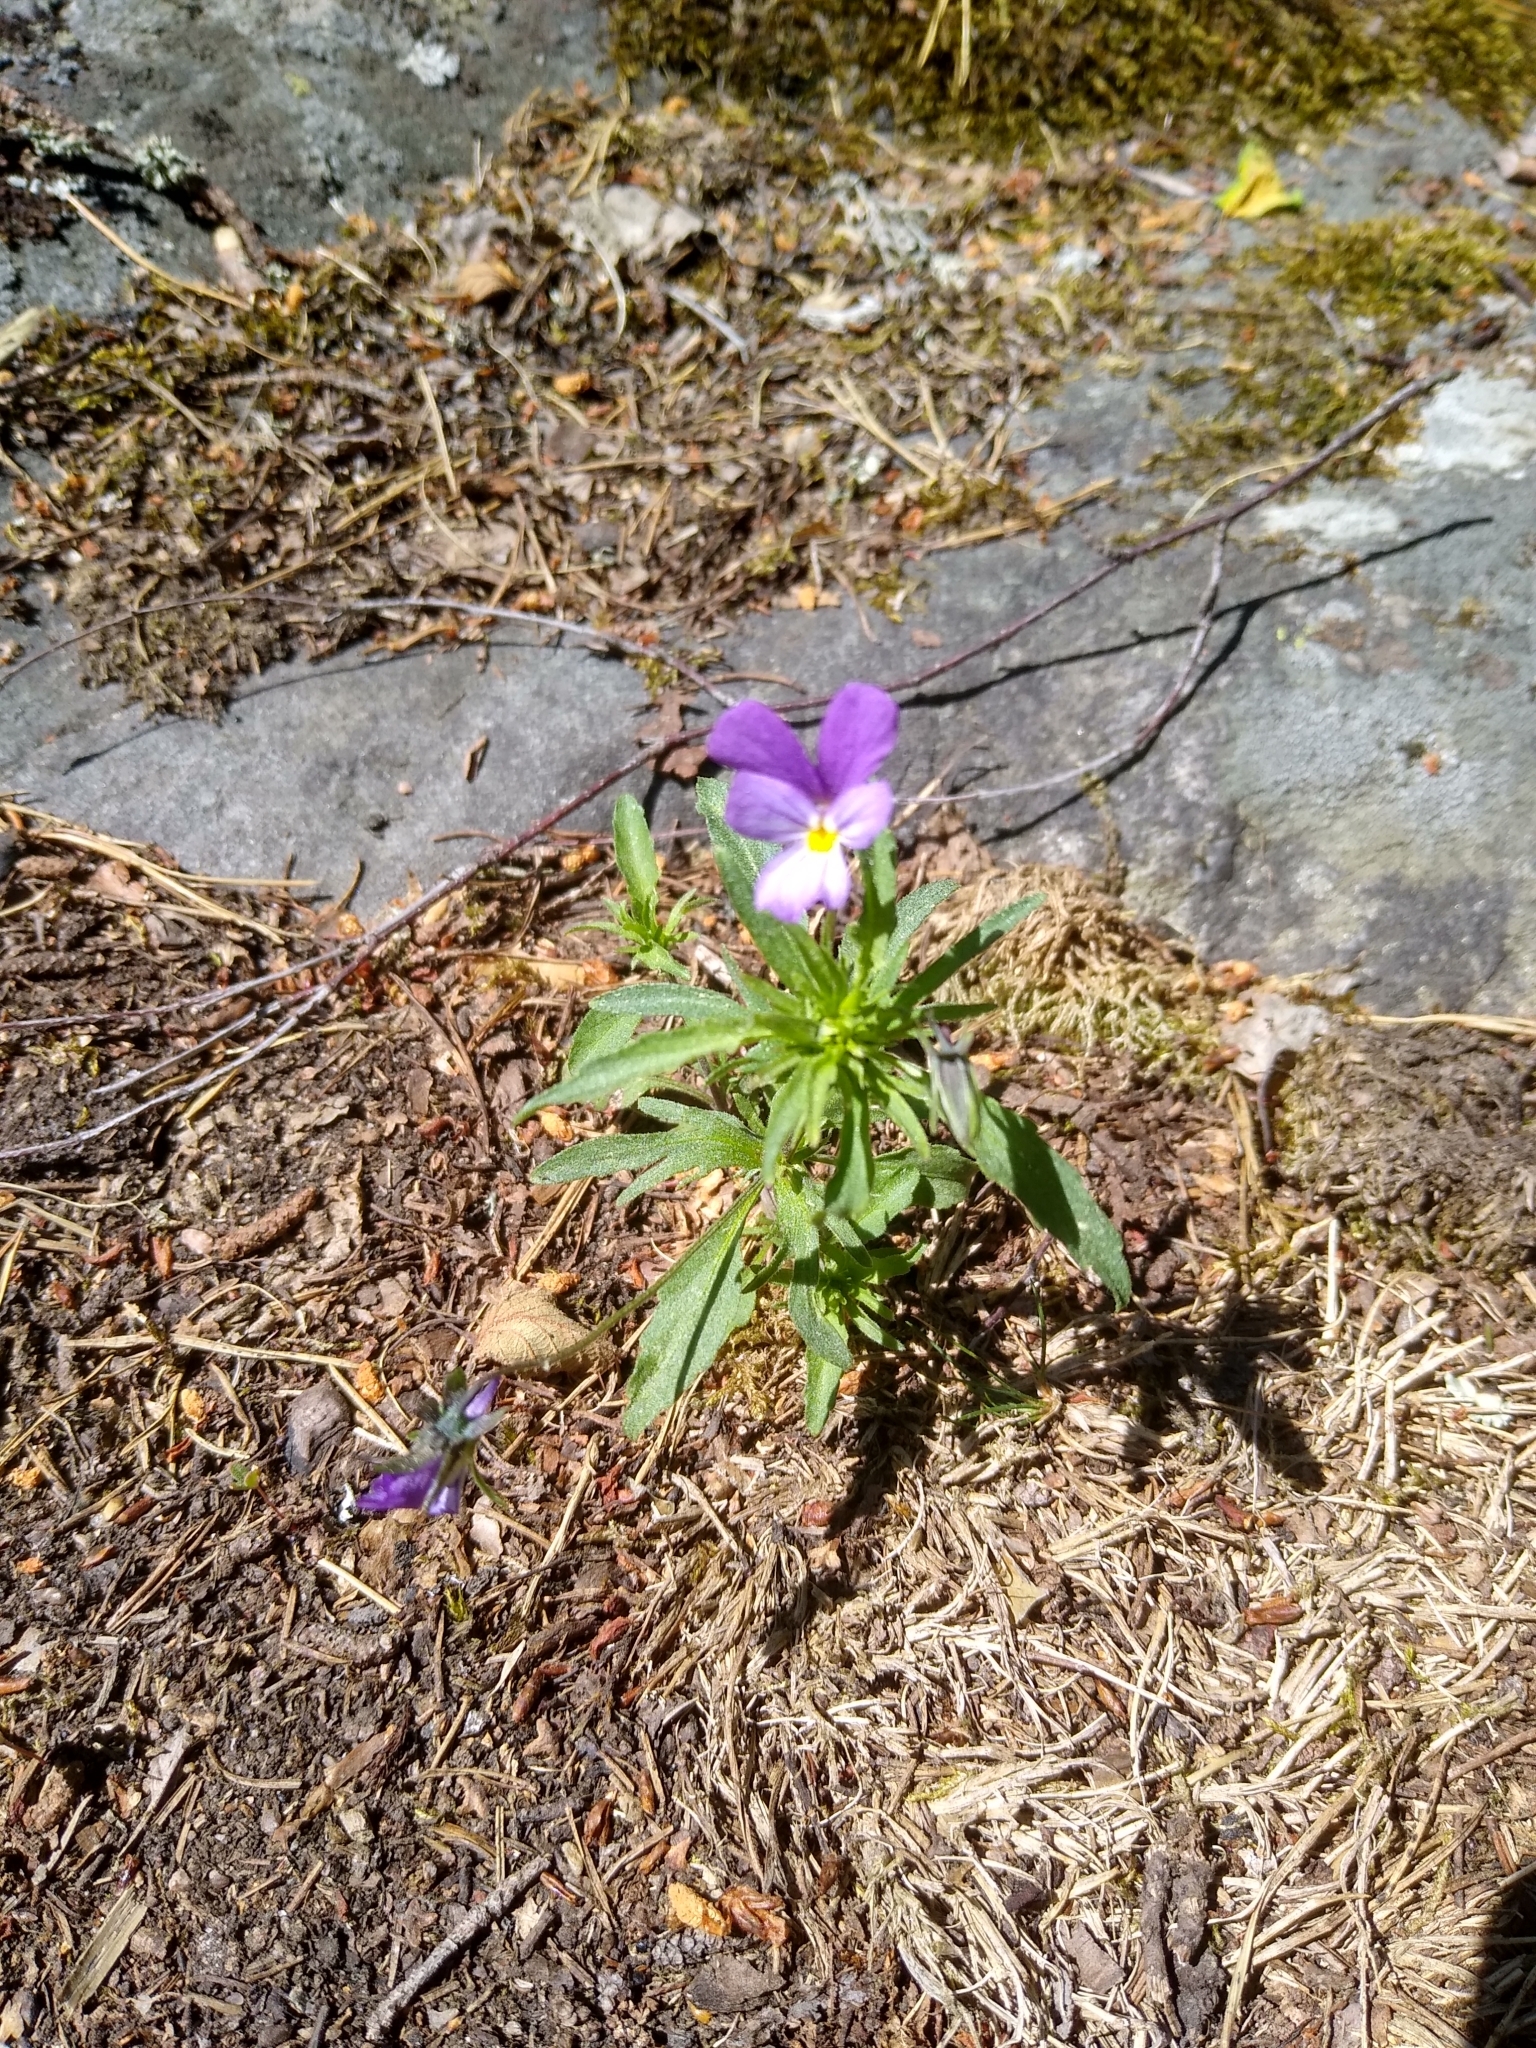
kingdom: Plantae
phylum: Tracheophyta
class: Magnoliopsida
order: Malpighiales
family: Violaceae
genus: Viola
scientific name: Viola tricolor
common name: Pansy
